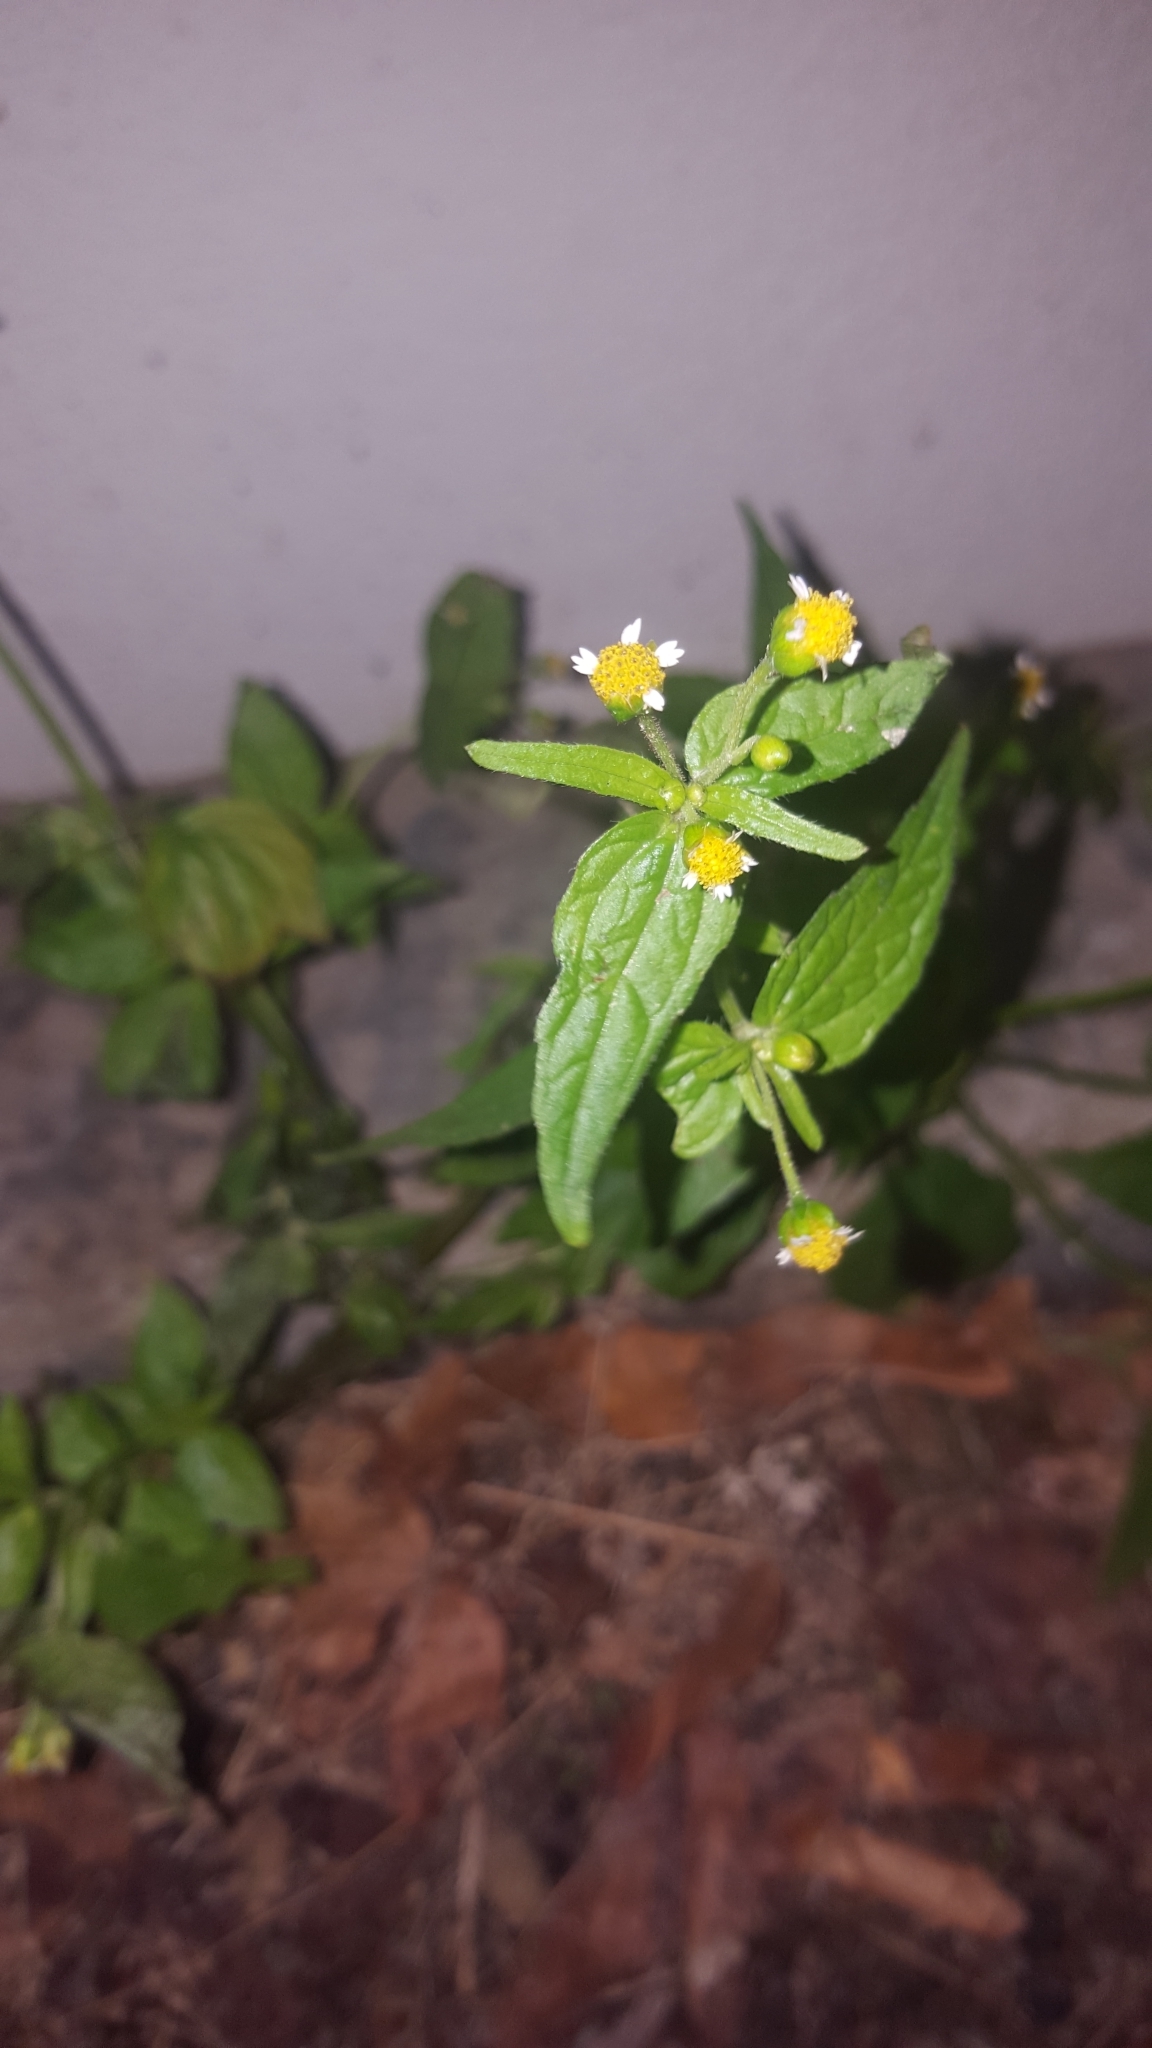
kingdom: Plantae
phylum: Tracheophyta
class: Magnoliopsida
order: Asterales
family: Asteraceae
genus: Galinsoga
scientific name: Galinsoga parviflora
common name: Gallant soldier
